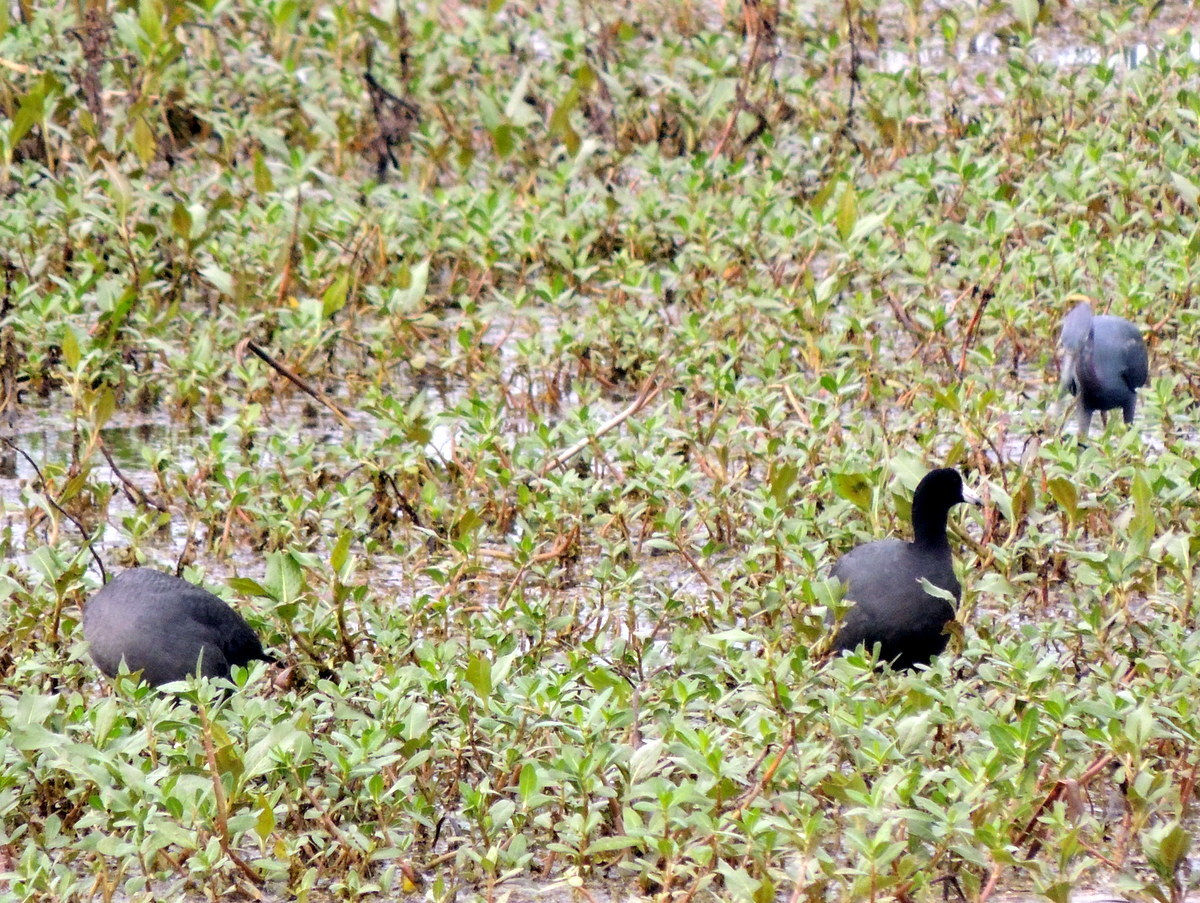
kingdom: Animalia
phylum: Chordata
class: Aves
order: Gruiformes
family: Rallidae
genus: Fulica
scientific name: Fulica americana
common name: American coot
